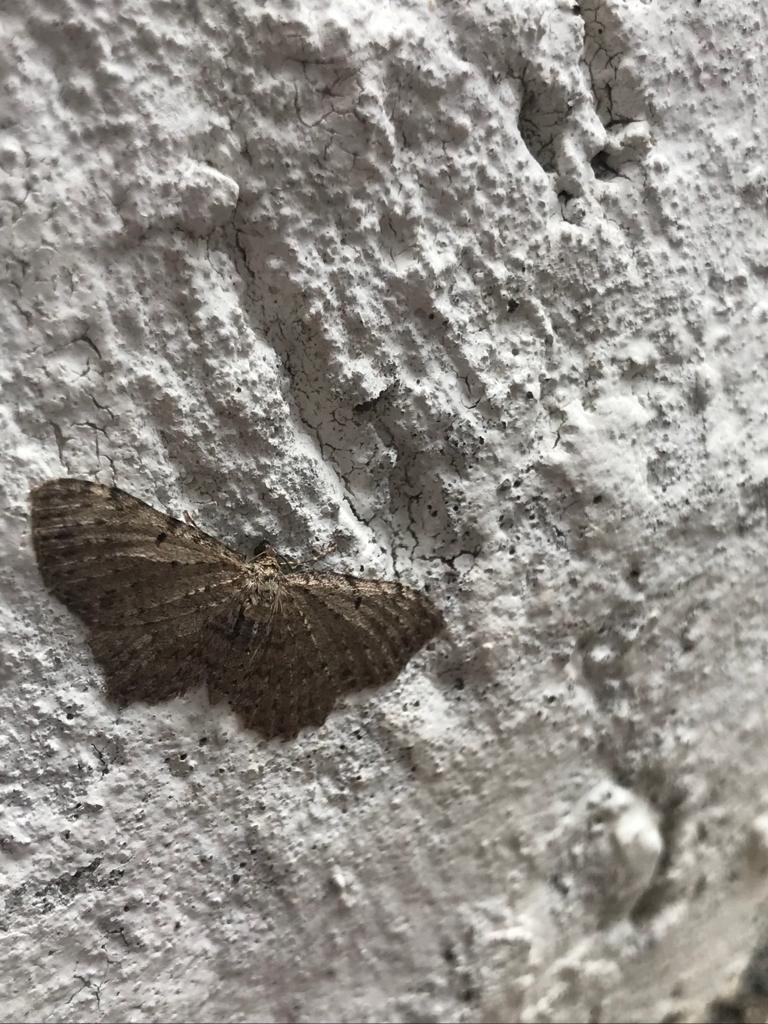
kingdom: Animalia
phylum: Arthropoda
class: Insecta
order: Lepidoptera
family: Geometridae
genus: Anticollix
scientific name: Anticollix sparsata
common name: Dentated pug
